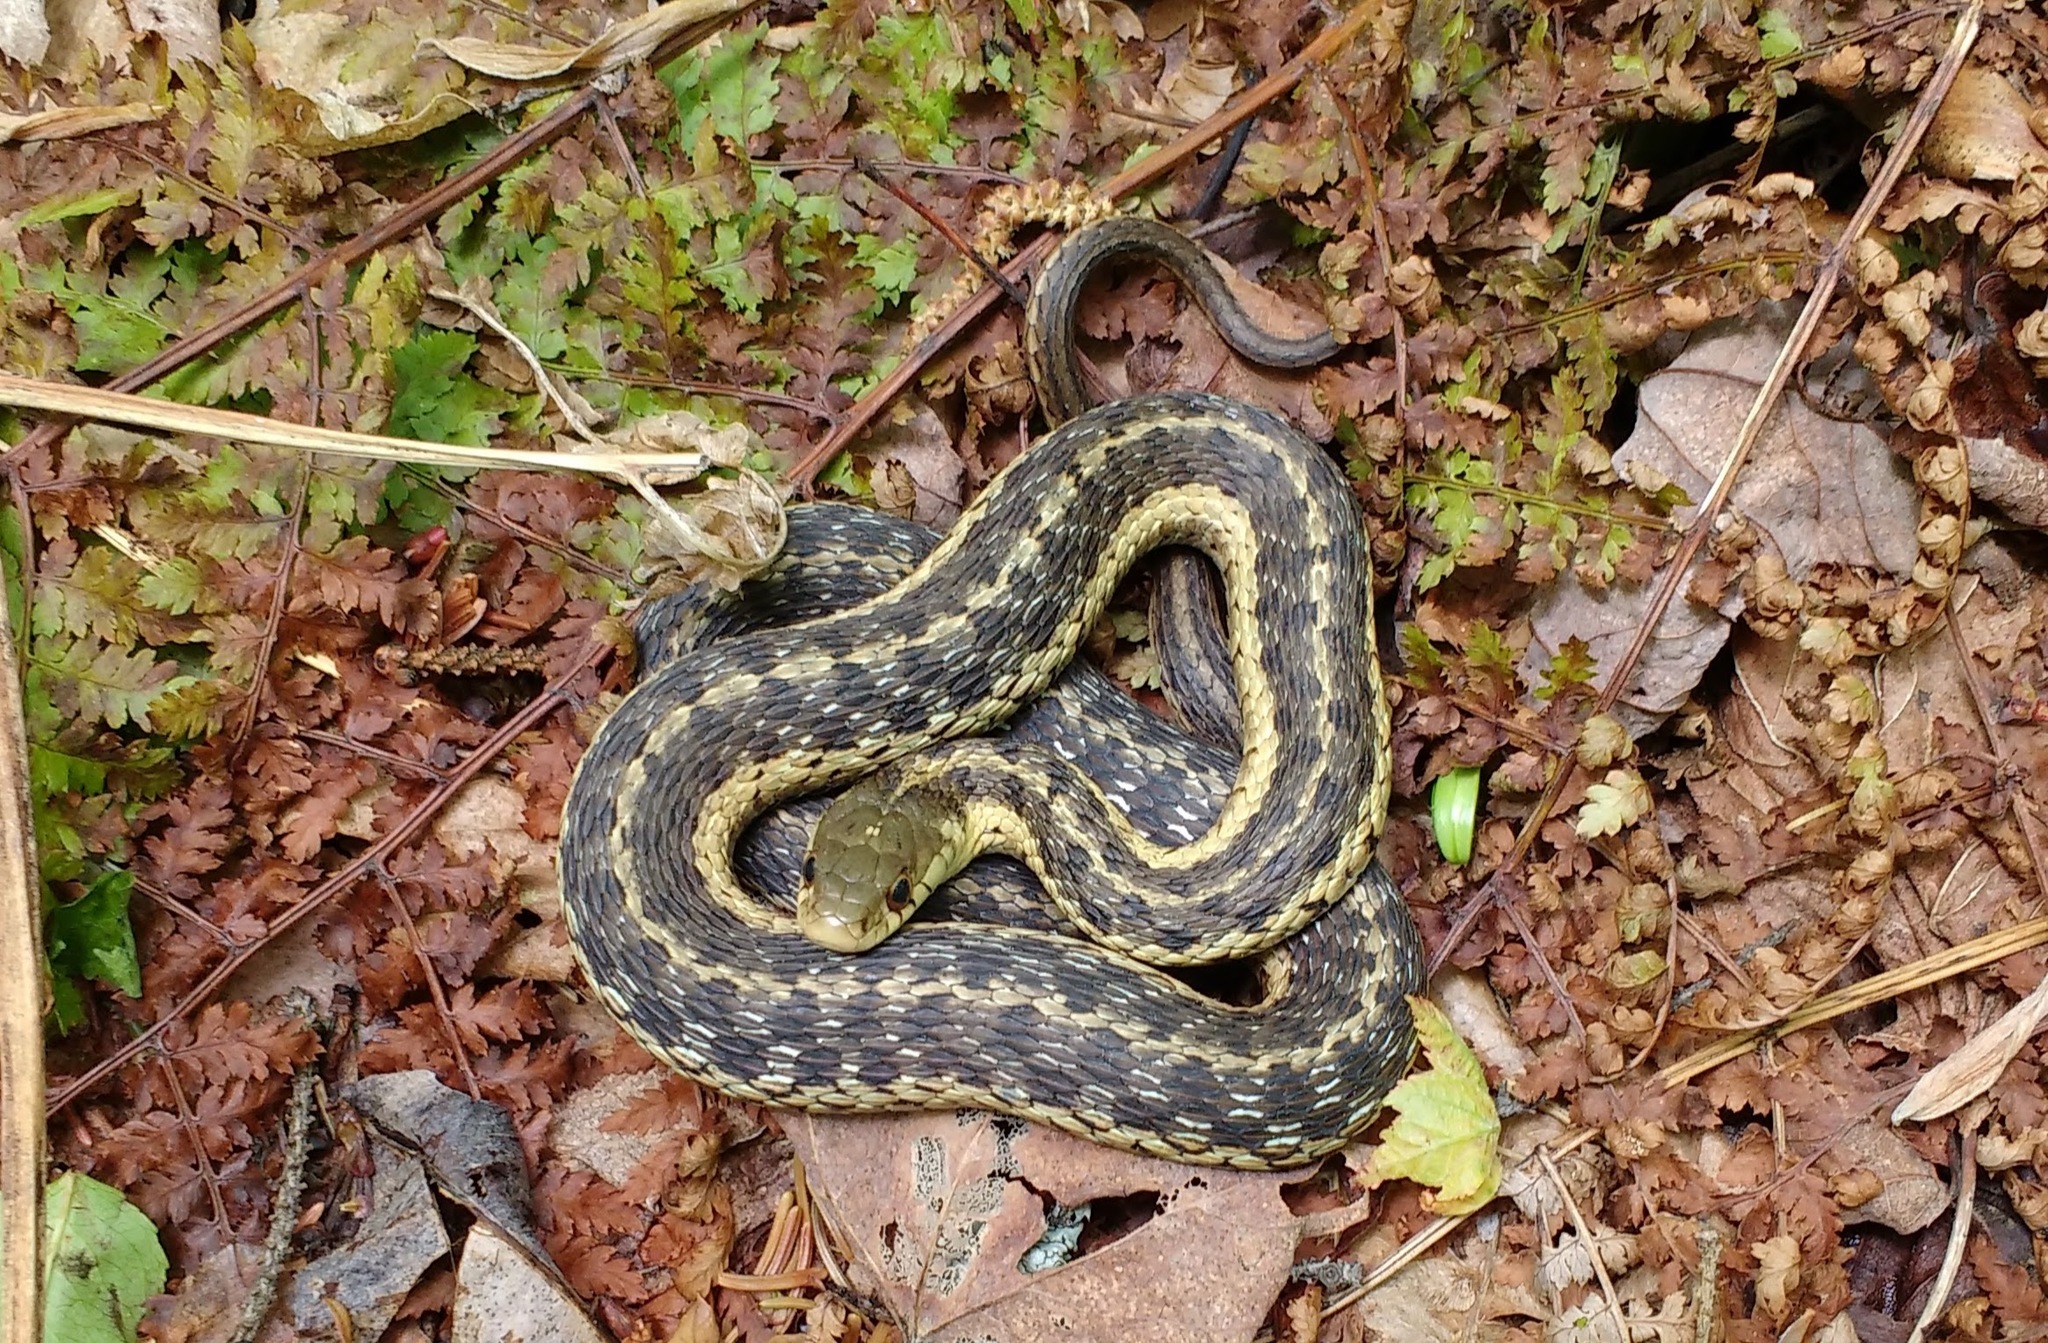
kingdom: Animalia
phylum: Chordata
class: Squamata
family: Colubridae
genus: Thamnophis
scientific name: Thamnophis sirtalis
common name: Common garter snake
